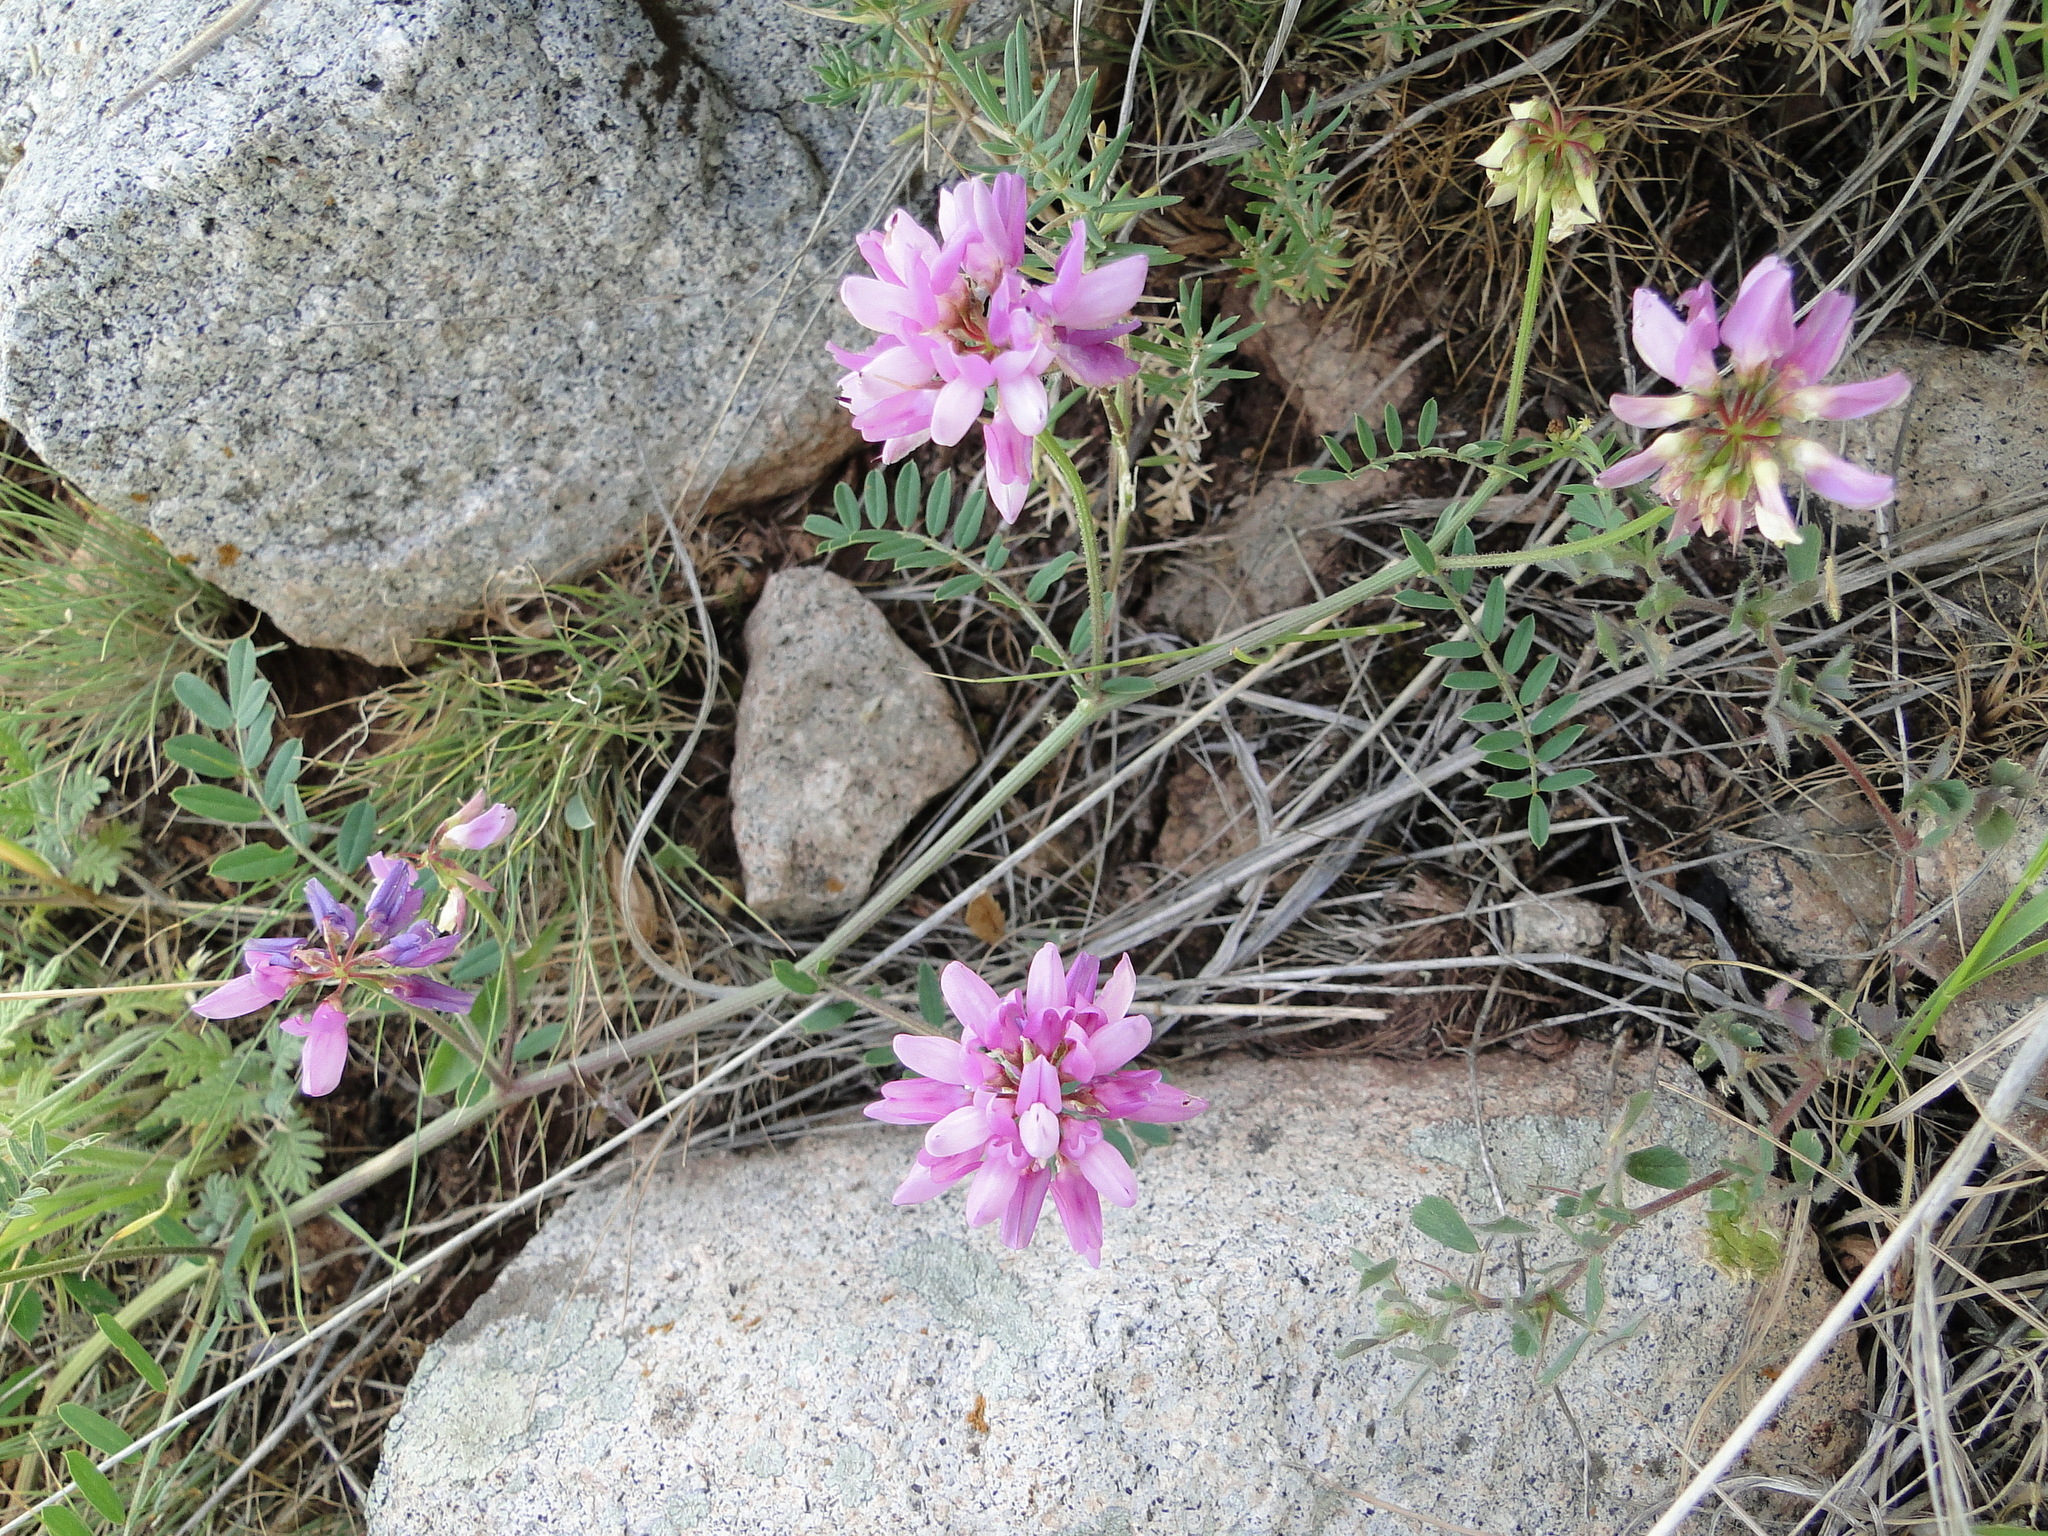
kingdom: Plantae
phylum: Tracheophyta
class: Magnoliopsida
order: Fabales
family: Fabaceae
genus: Coronilla
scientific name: Coronilla varia
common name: Crownvetch
